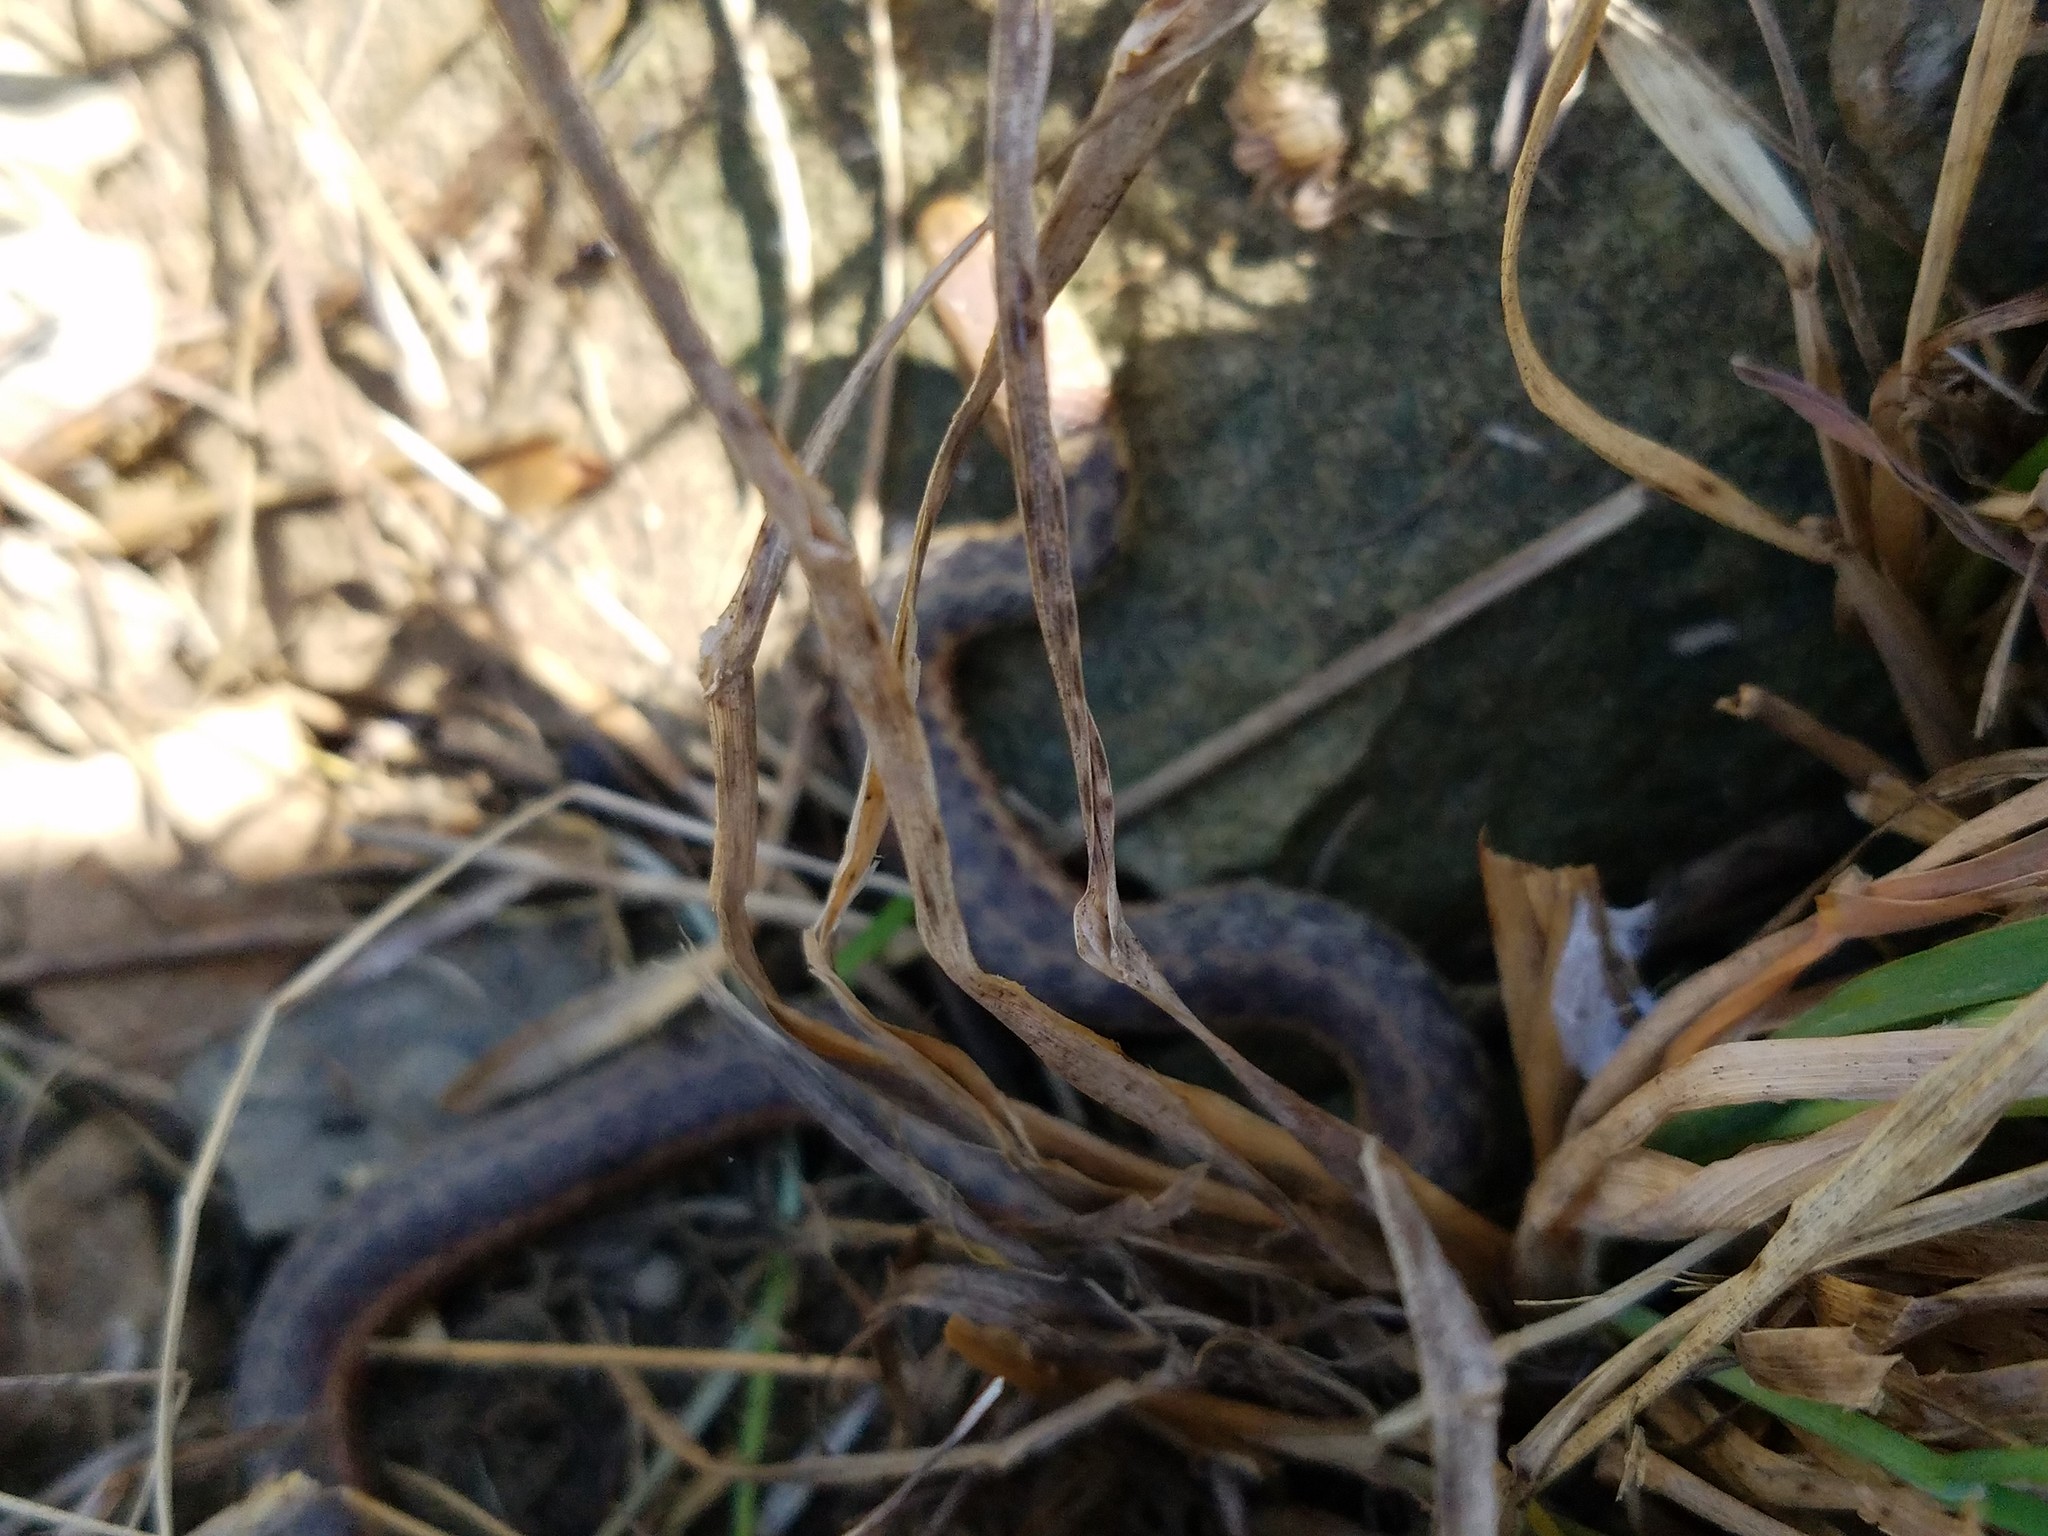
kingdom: Animalia
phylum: Chordata
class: Squamata
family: Colubridae
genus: Thamnophis
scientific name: Thamnophis sirtalis
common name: Common garter snake
